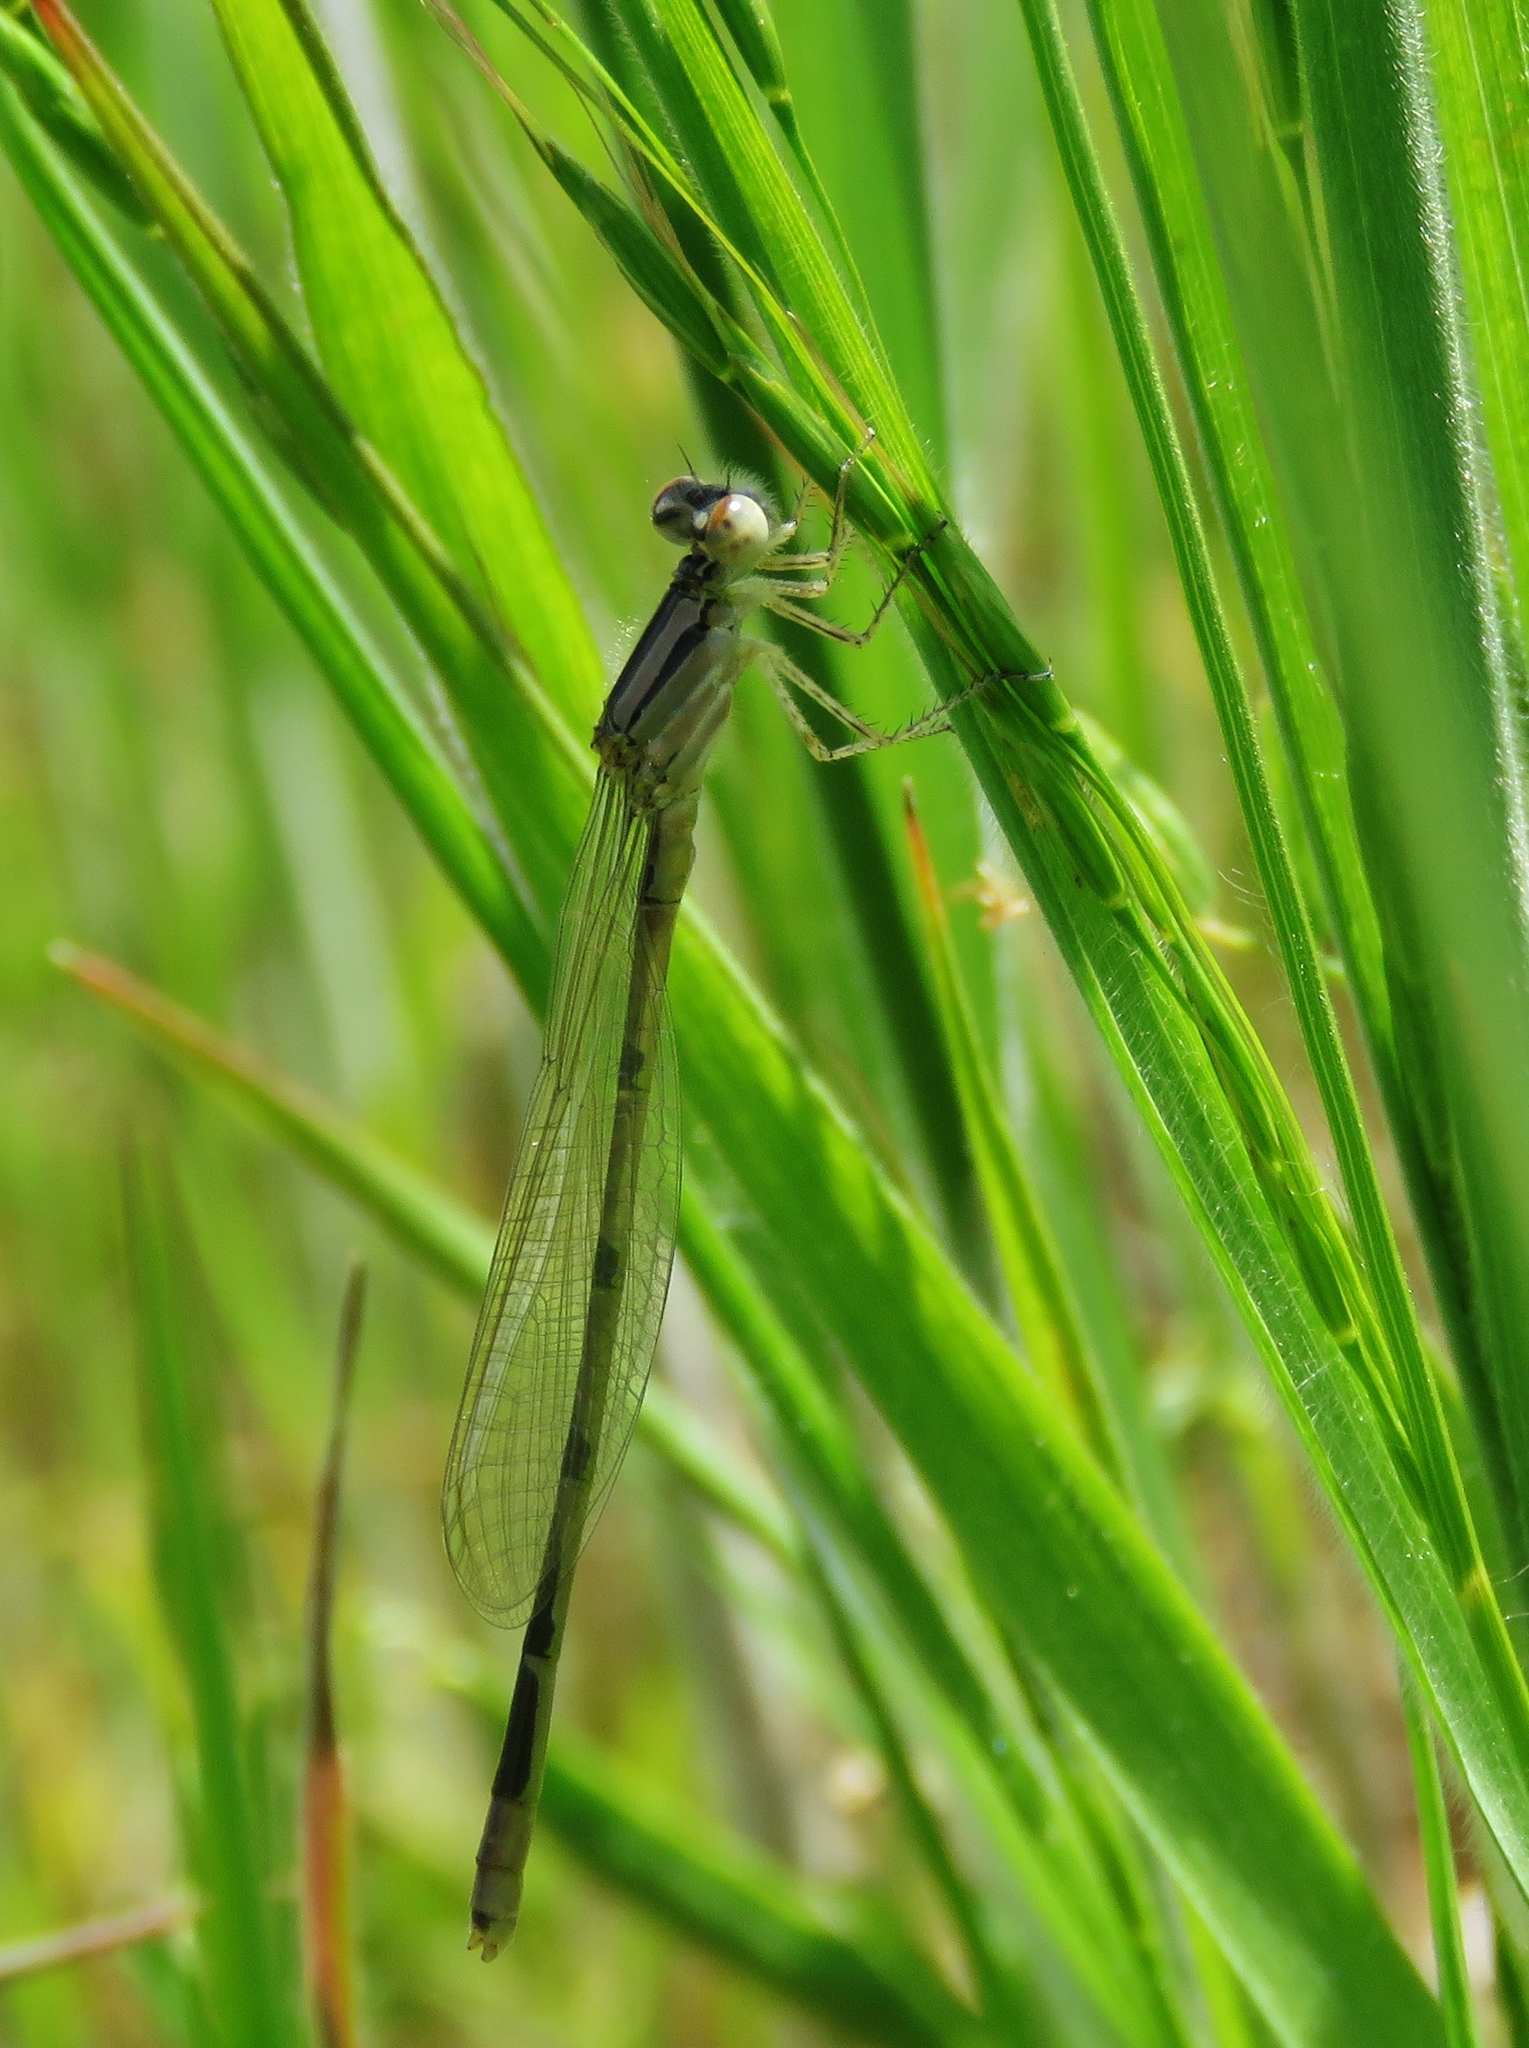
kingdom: Animalia
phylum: Arthropoda
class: Insecta
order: Odonata
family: Coenagrionidae
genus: Enallagma
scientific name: Enallagma civile
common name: Damselfly
